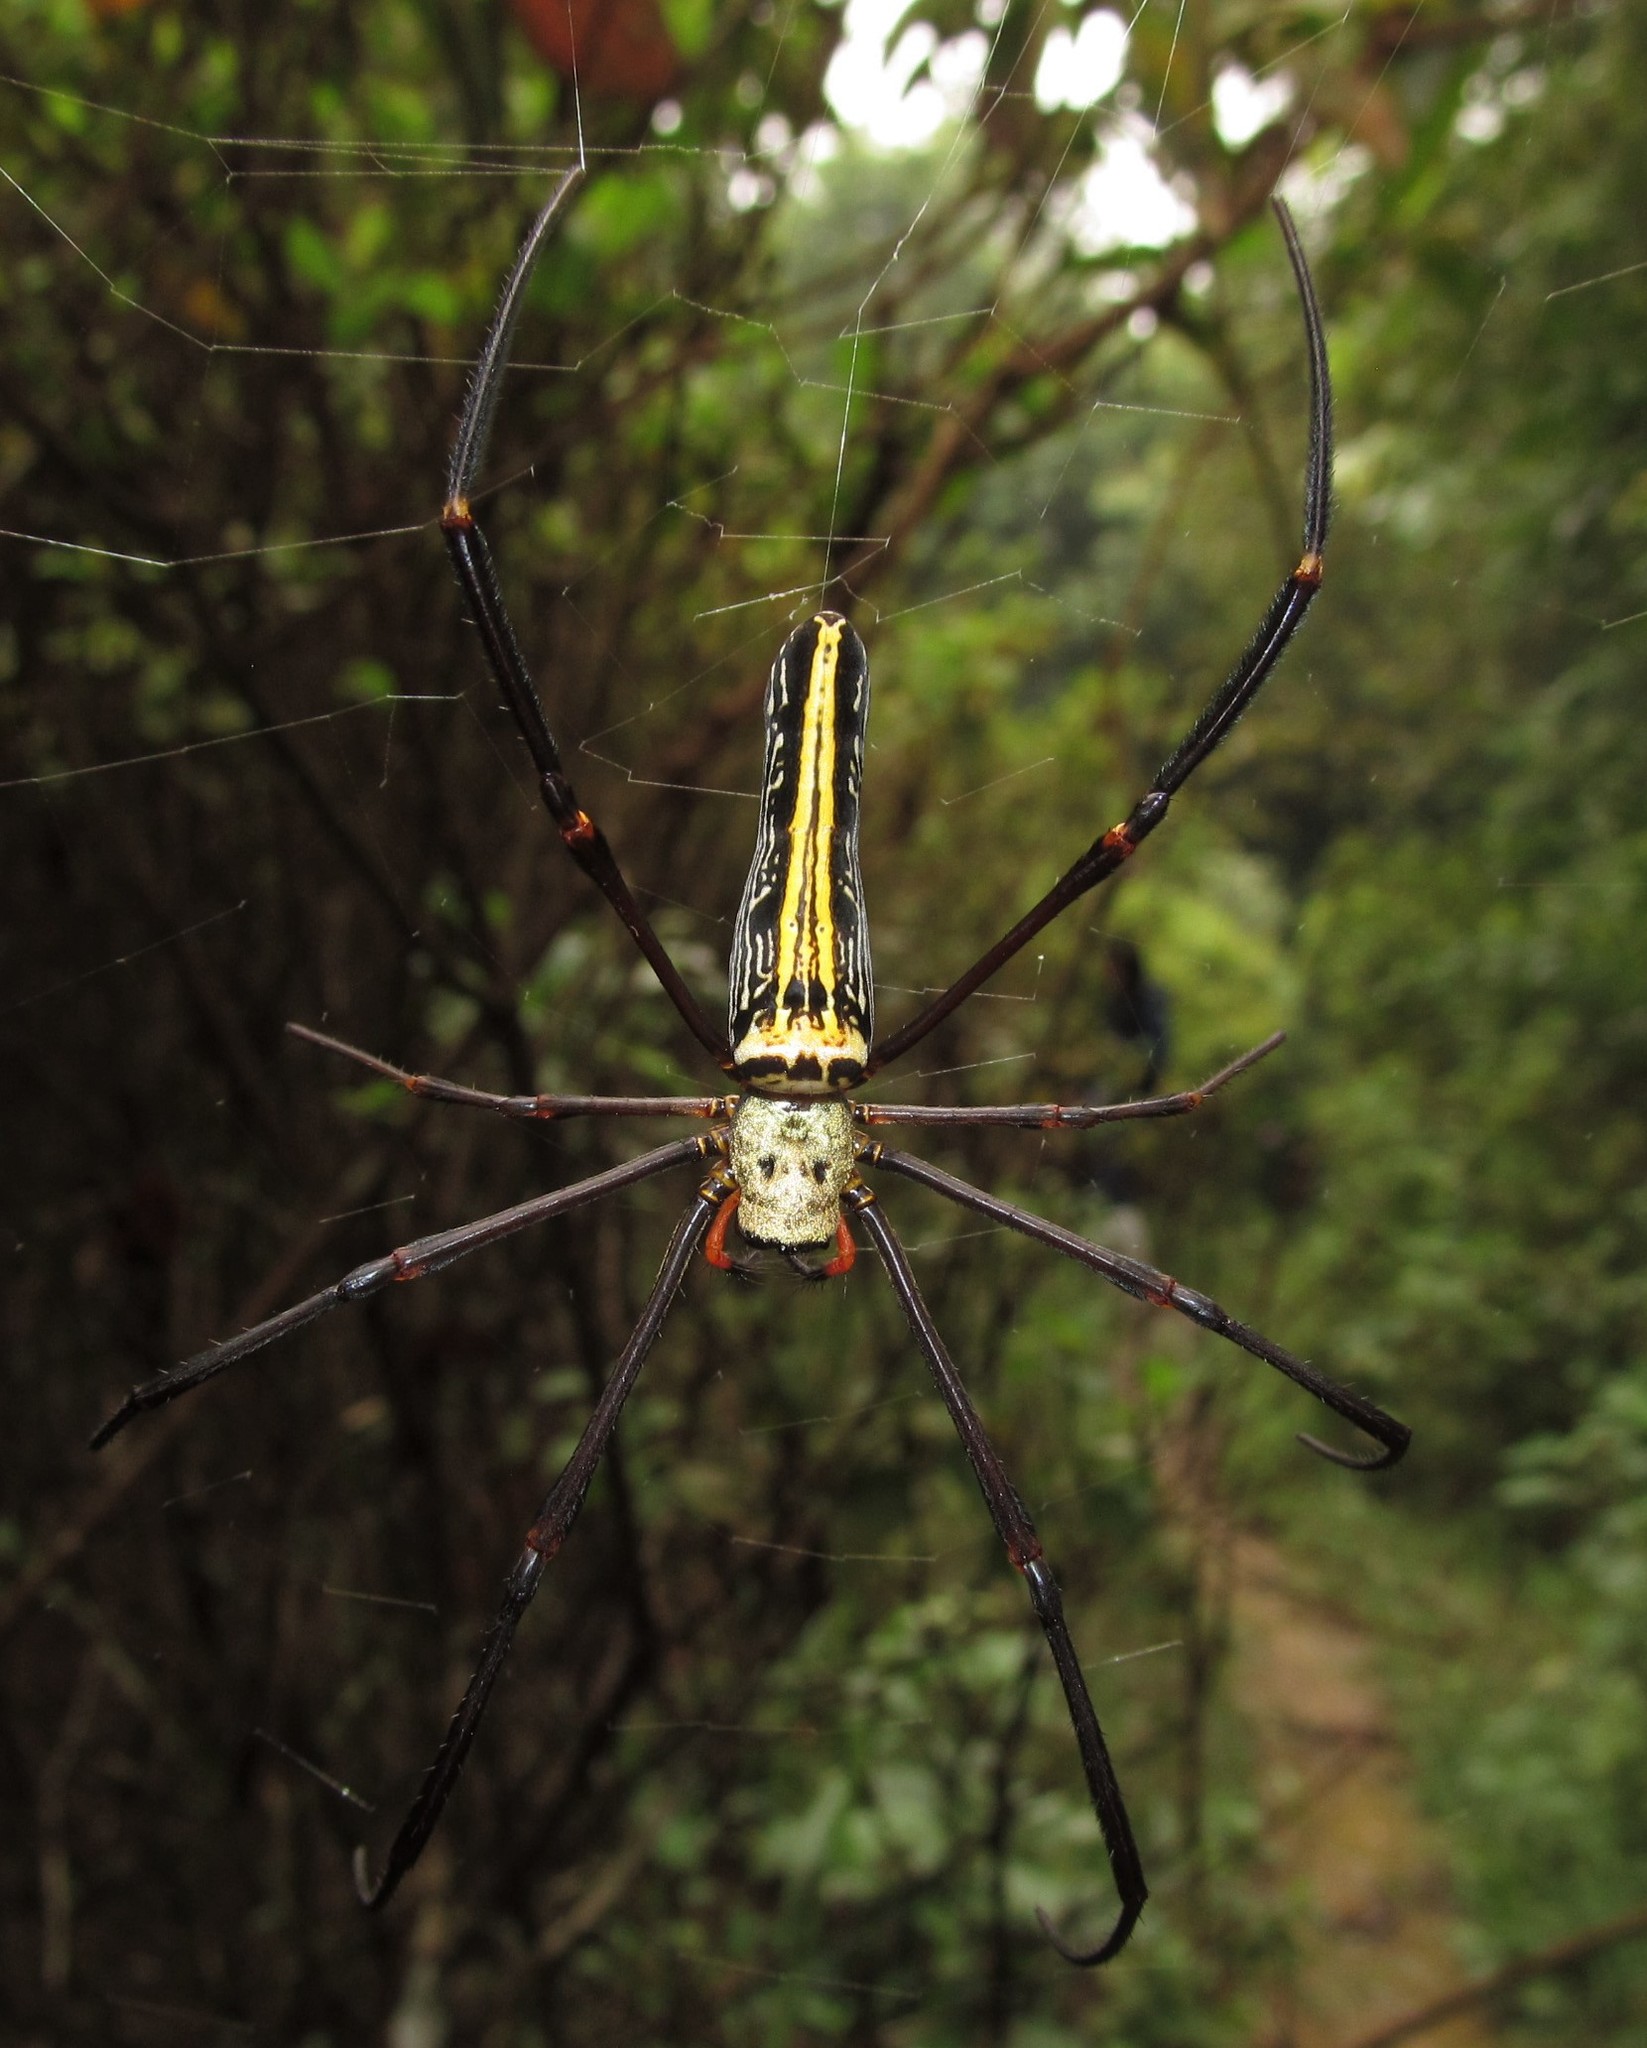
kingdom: Animalia
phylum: Arthropoda
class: Arachnida
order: Araneae
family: Araneidae
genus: Nephila
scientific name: Nephila pilipes
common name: Giant golden orb weaver
